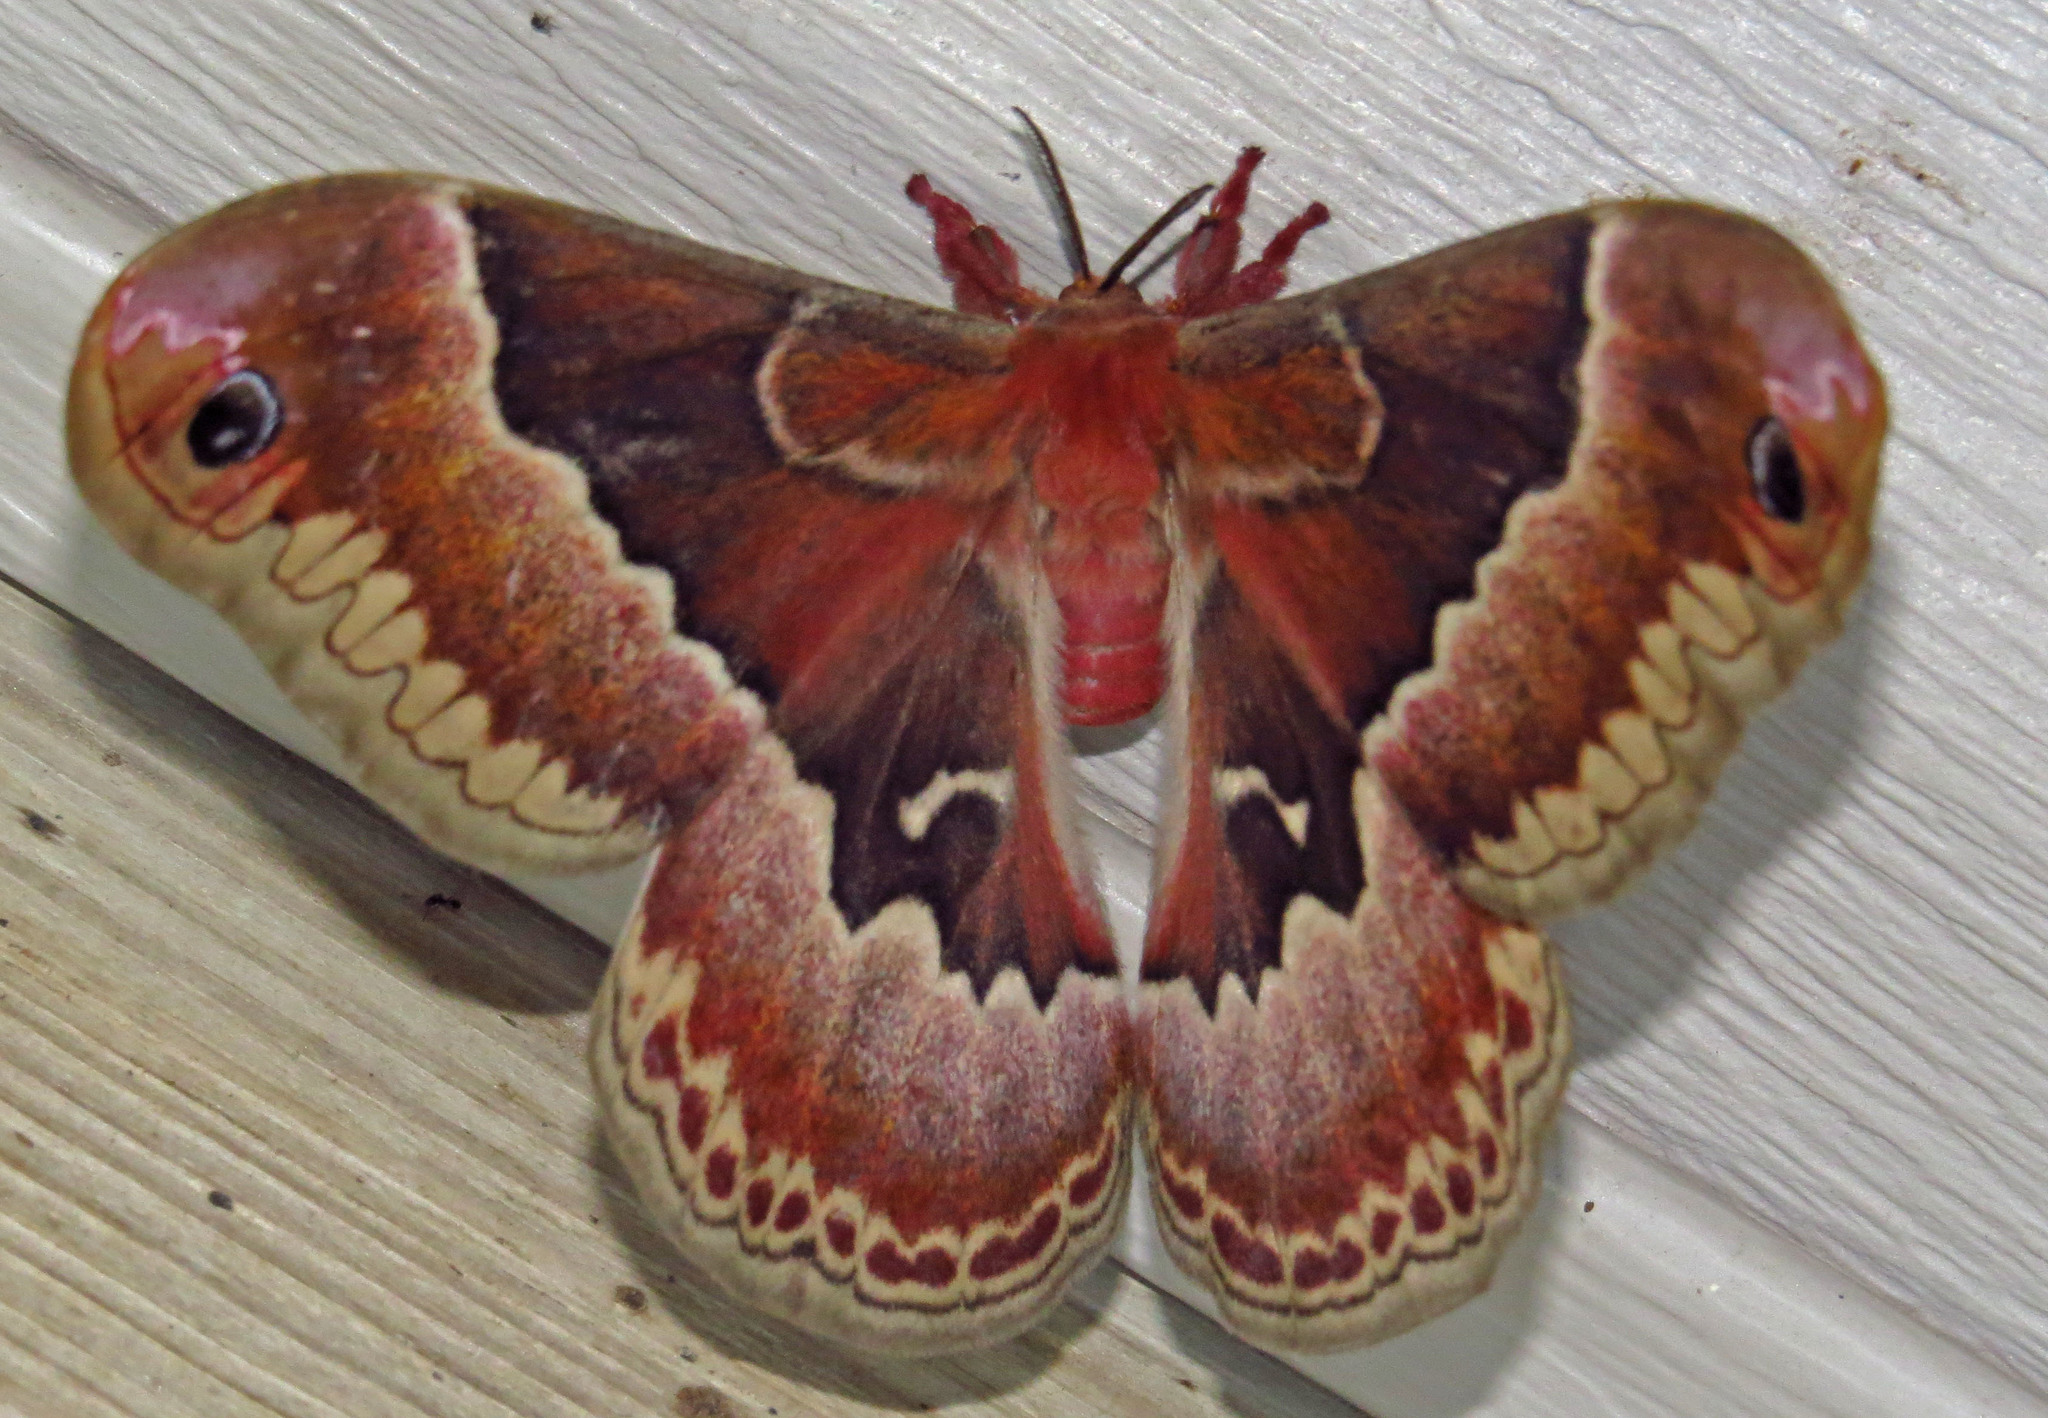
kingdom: Animalia
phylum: Arthropoda
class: Insecta
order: Lepidoptera
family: Saturniidae
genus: Callosamia
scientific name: Callosamia promethea
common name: Promethea silkmoth
